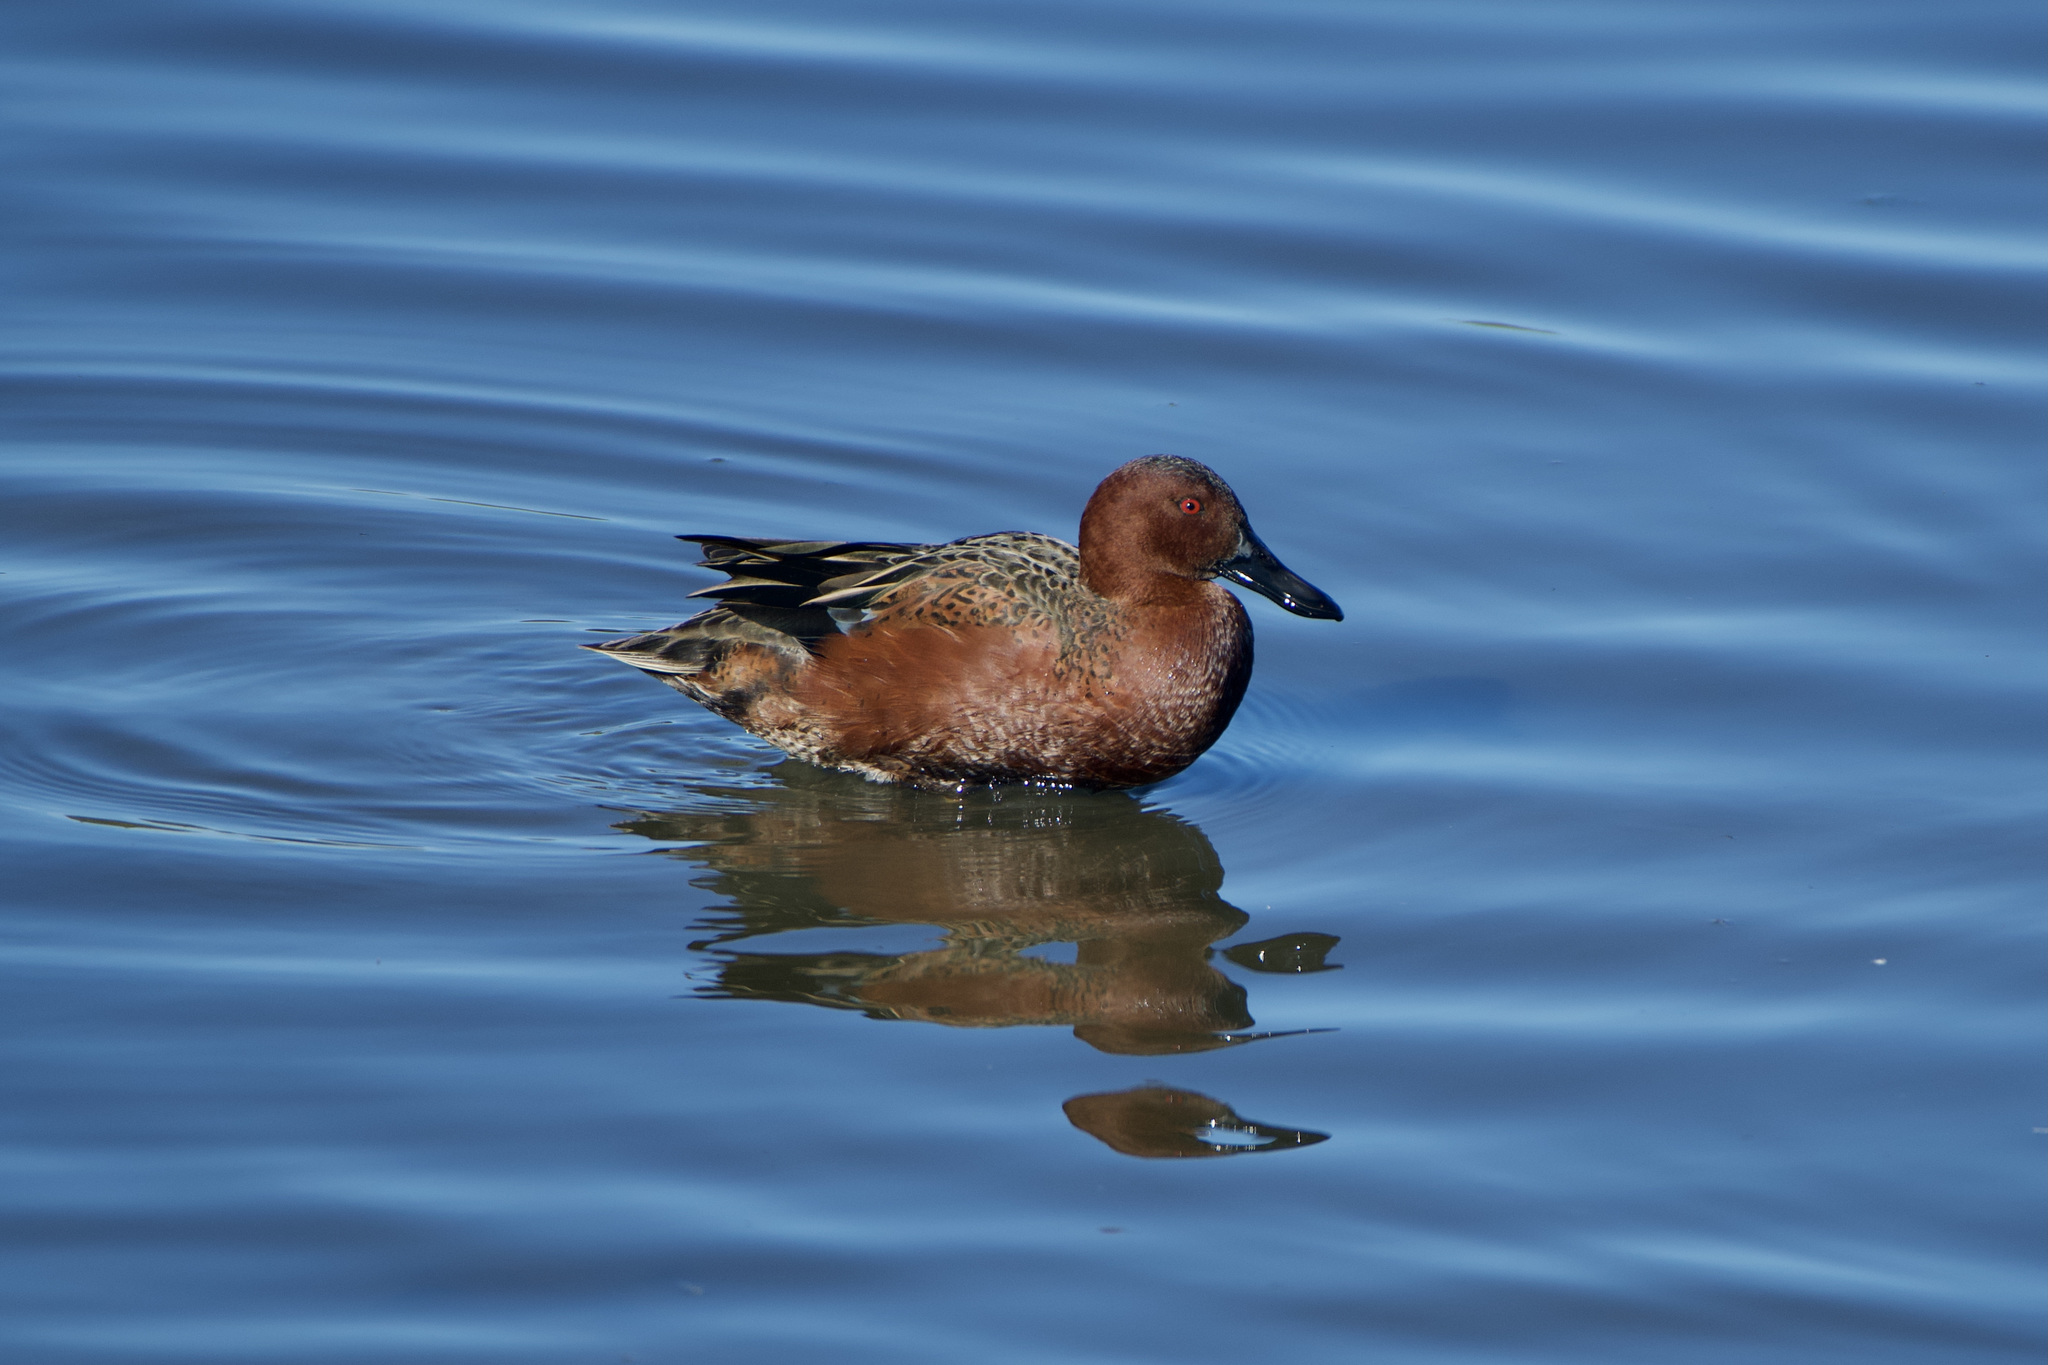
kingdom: Animalia
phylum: Chordata
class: Aves
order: Anseriformes
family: Anatidae
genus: Spatula
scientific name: Spatula cyanoptera
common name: Cinnamon teal
